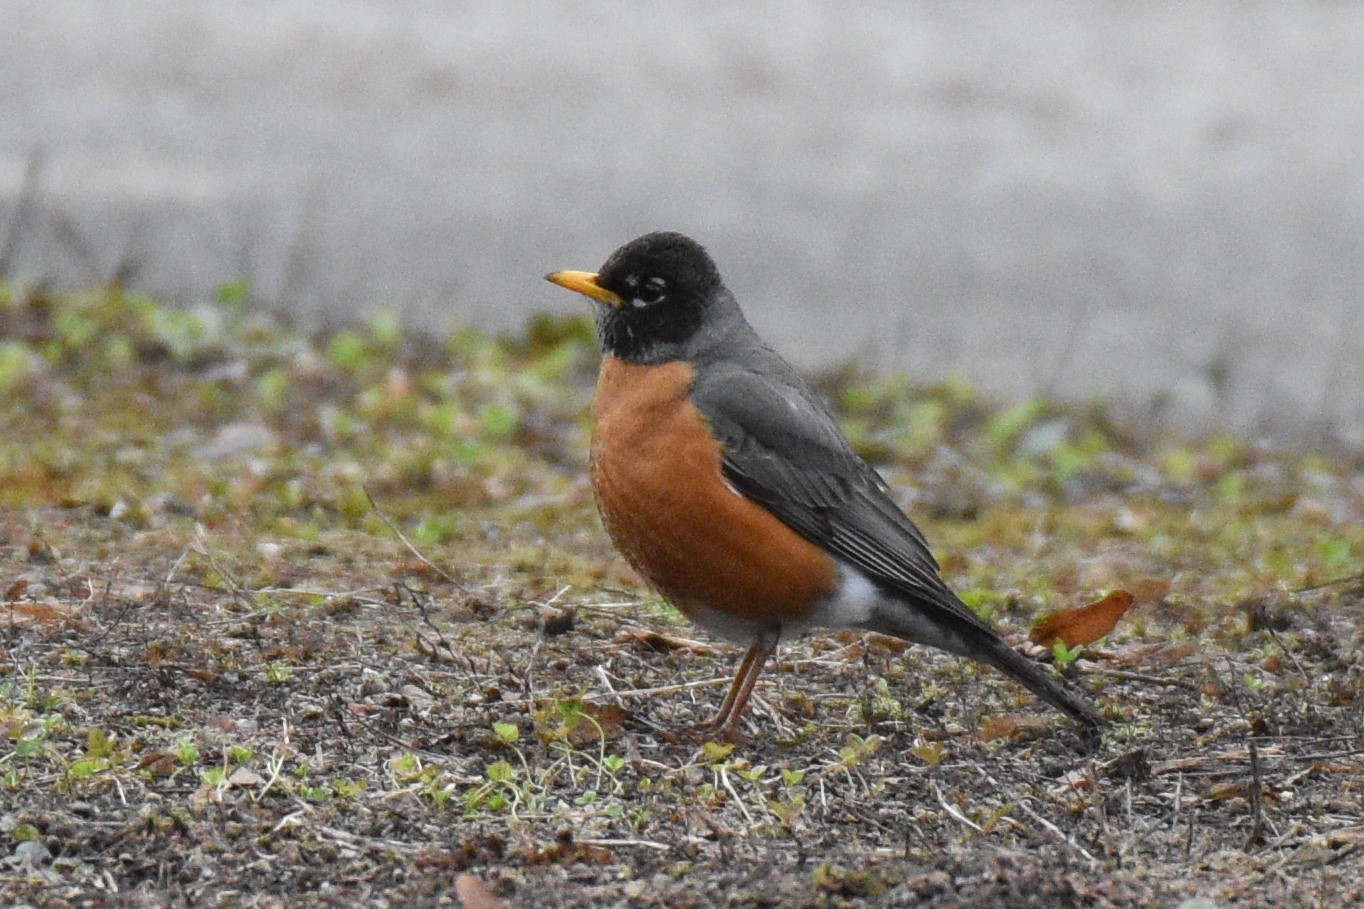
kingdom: Animalia
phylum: Chordata
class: Aves
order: Passeriformes
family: Turdidae
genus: Turdus
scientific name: Turdus migratorius
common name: American robin
